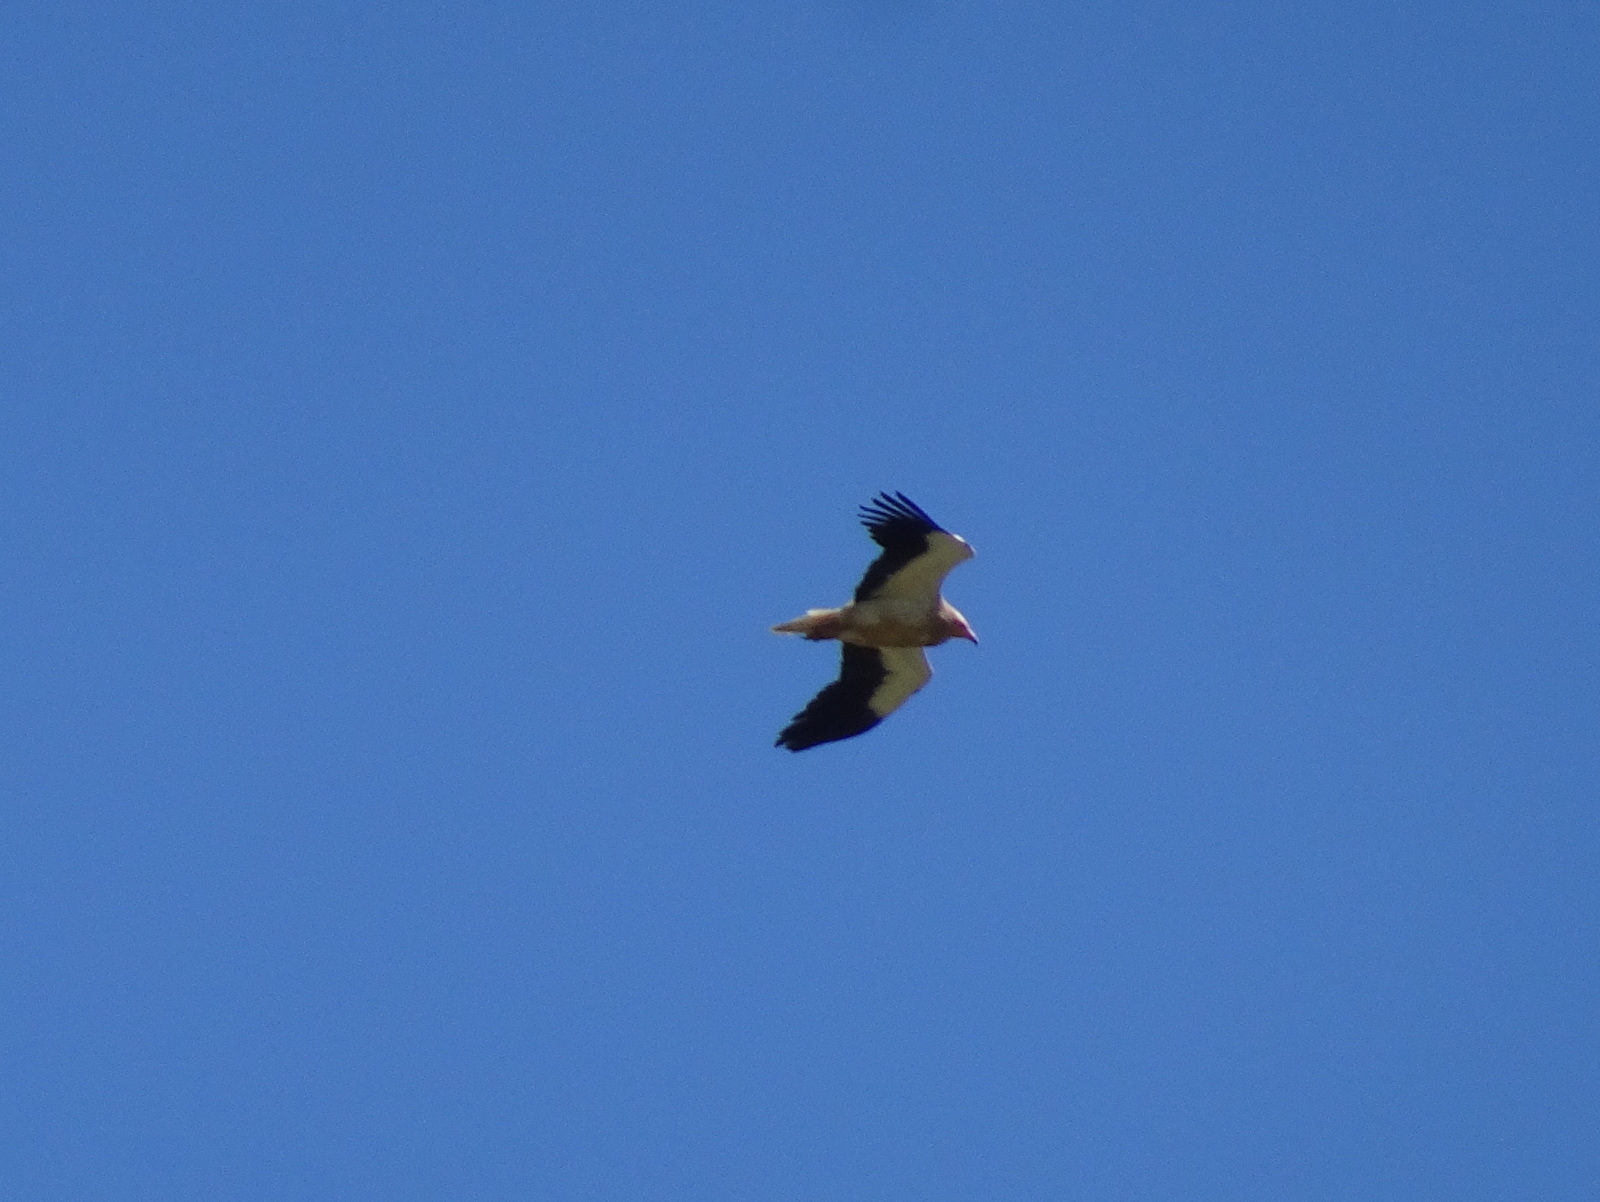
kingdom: Animalia
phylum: Chordata
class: Aves
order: Accipitriformes
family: Accipitridae
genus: Neophron
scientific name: Neophron percnopterus
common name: Egyptian vulture
